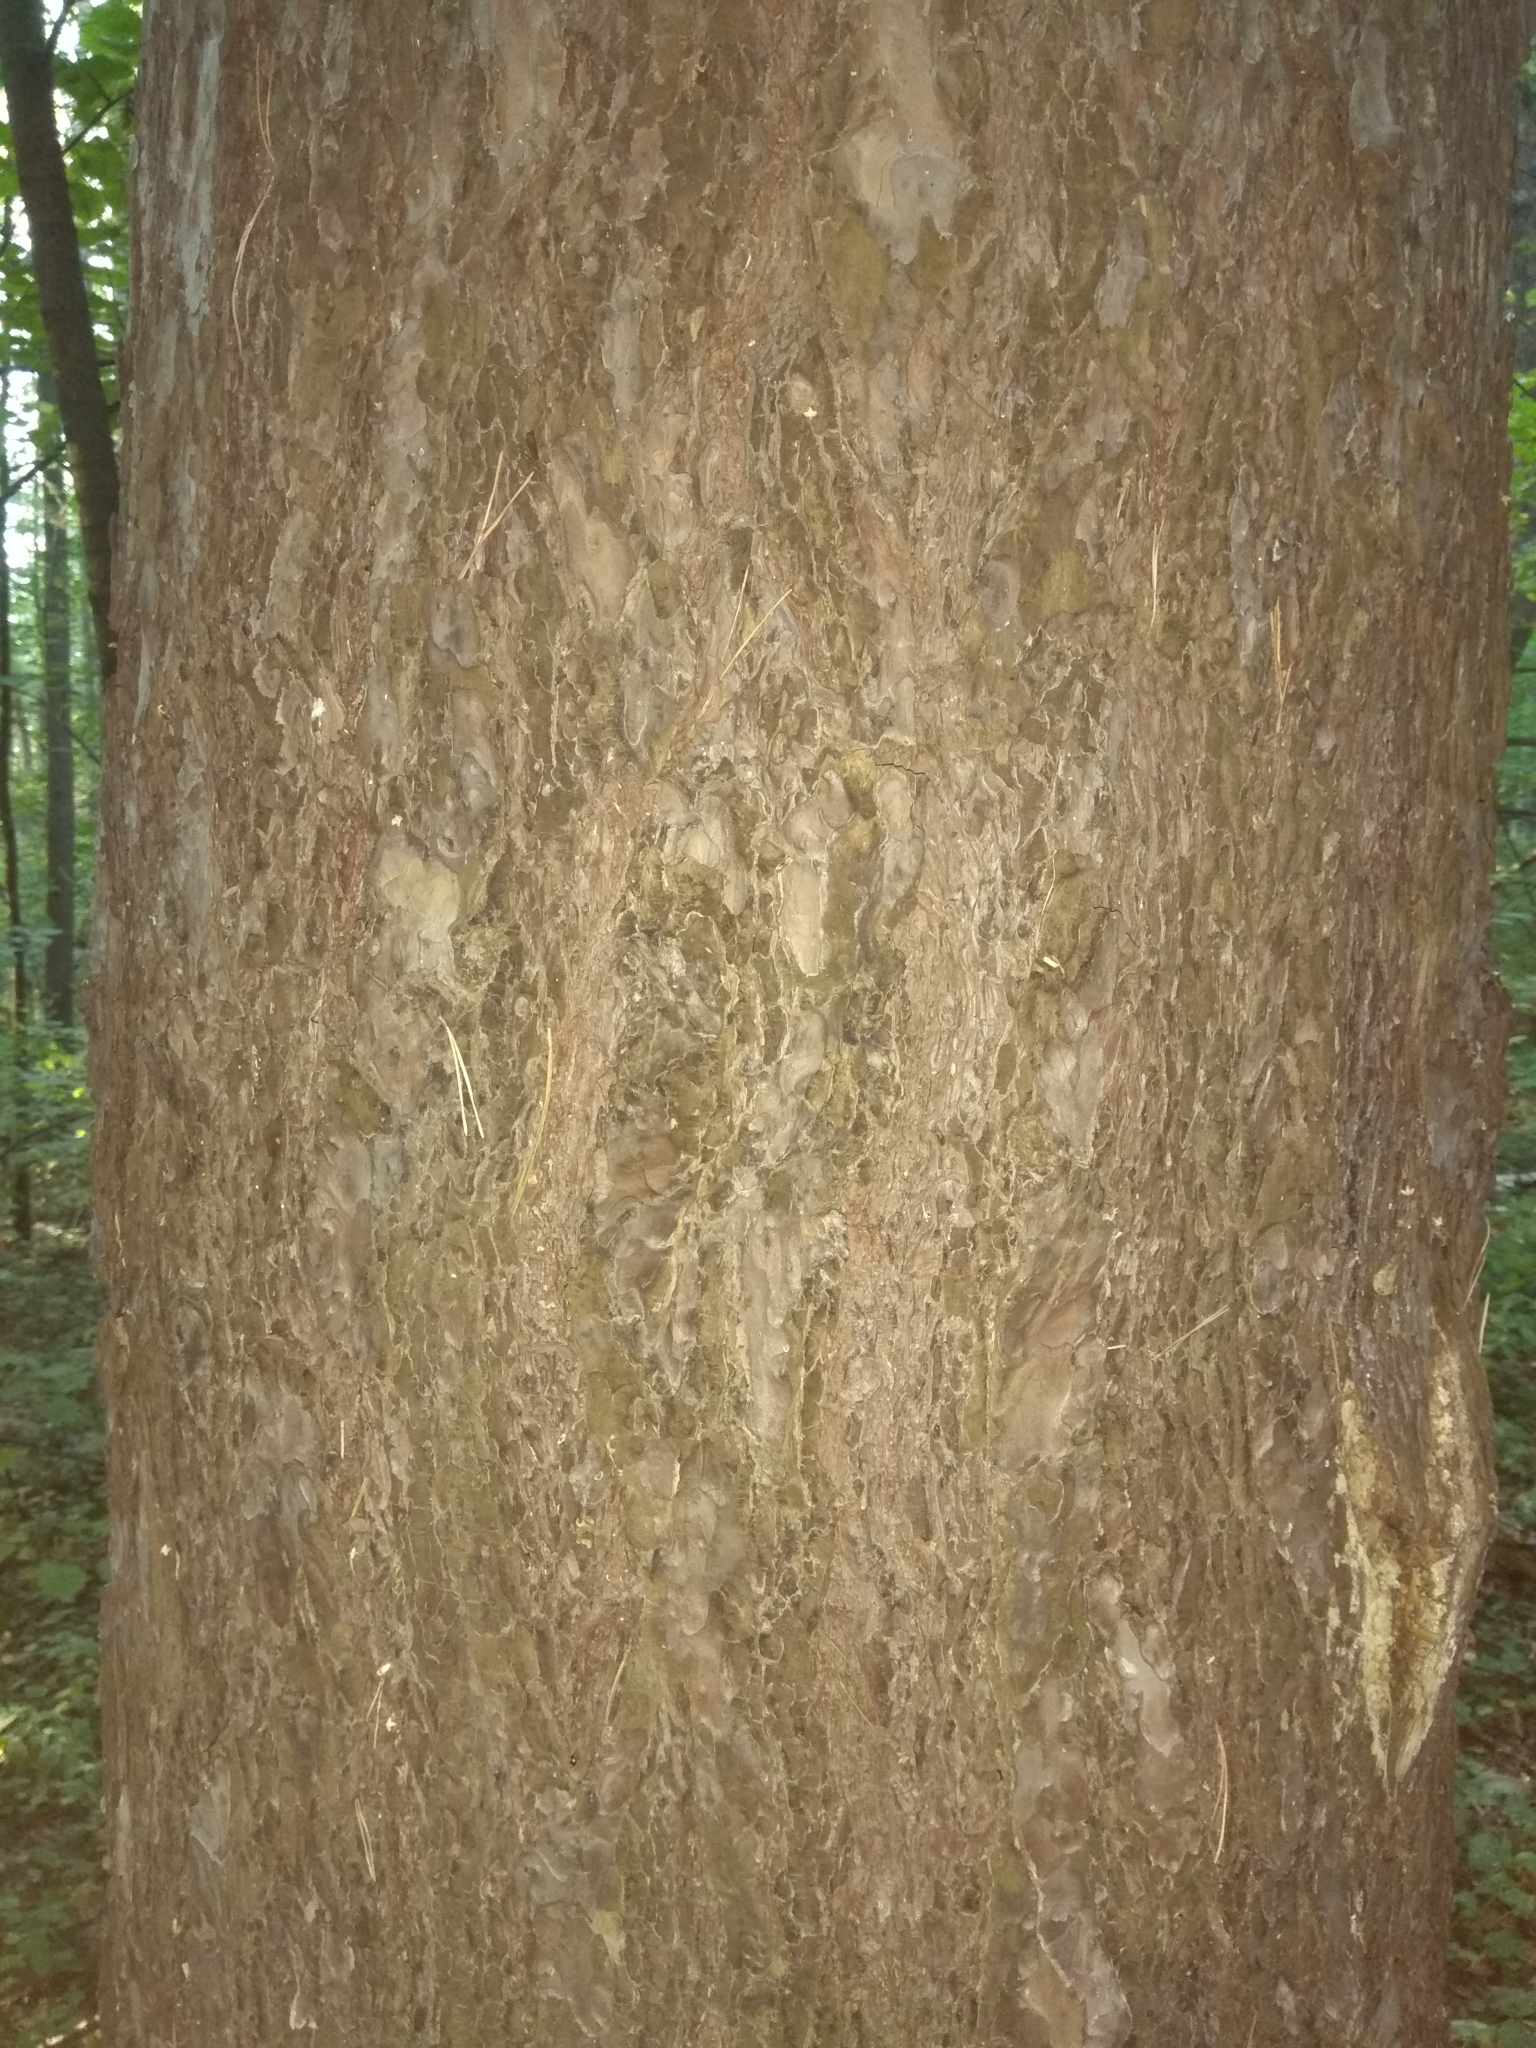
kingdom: Plantae
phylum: Tracheophyta
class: Pinopsida
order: Pinales
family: Pinaceae
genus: Pinus
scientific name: Pinus sylvestris
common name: Scots pine
